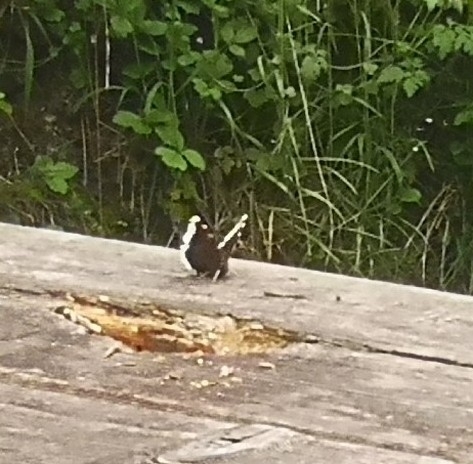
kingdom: Animalia
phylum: Arthropoda
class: Insecta
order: Lepidoptera
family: Nymphalidae
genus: Nymphalis
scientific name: Nymphalis antiopa
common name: Camberwell beauty
